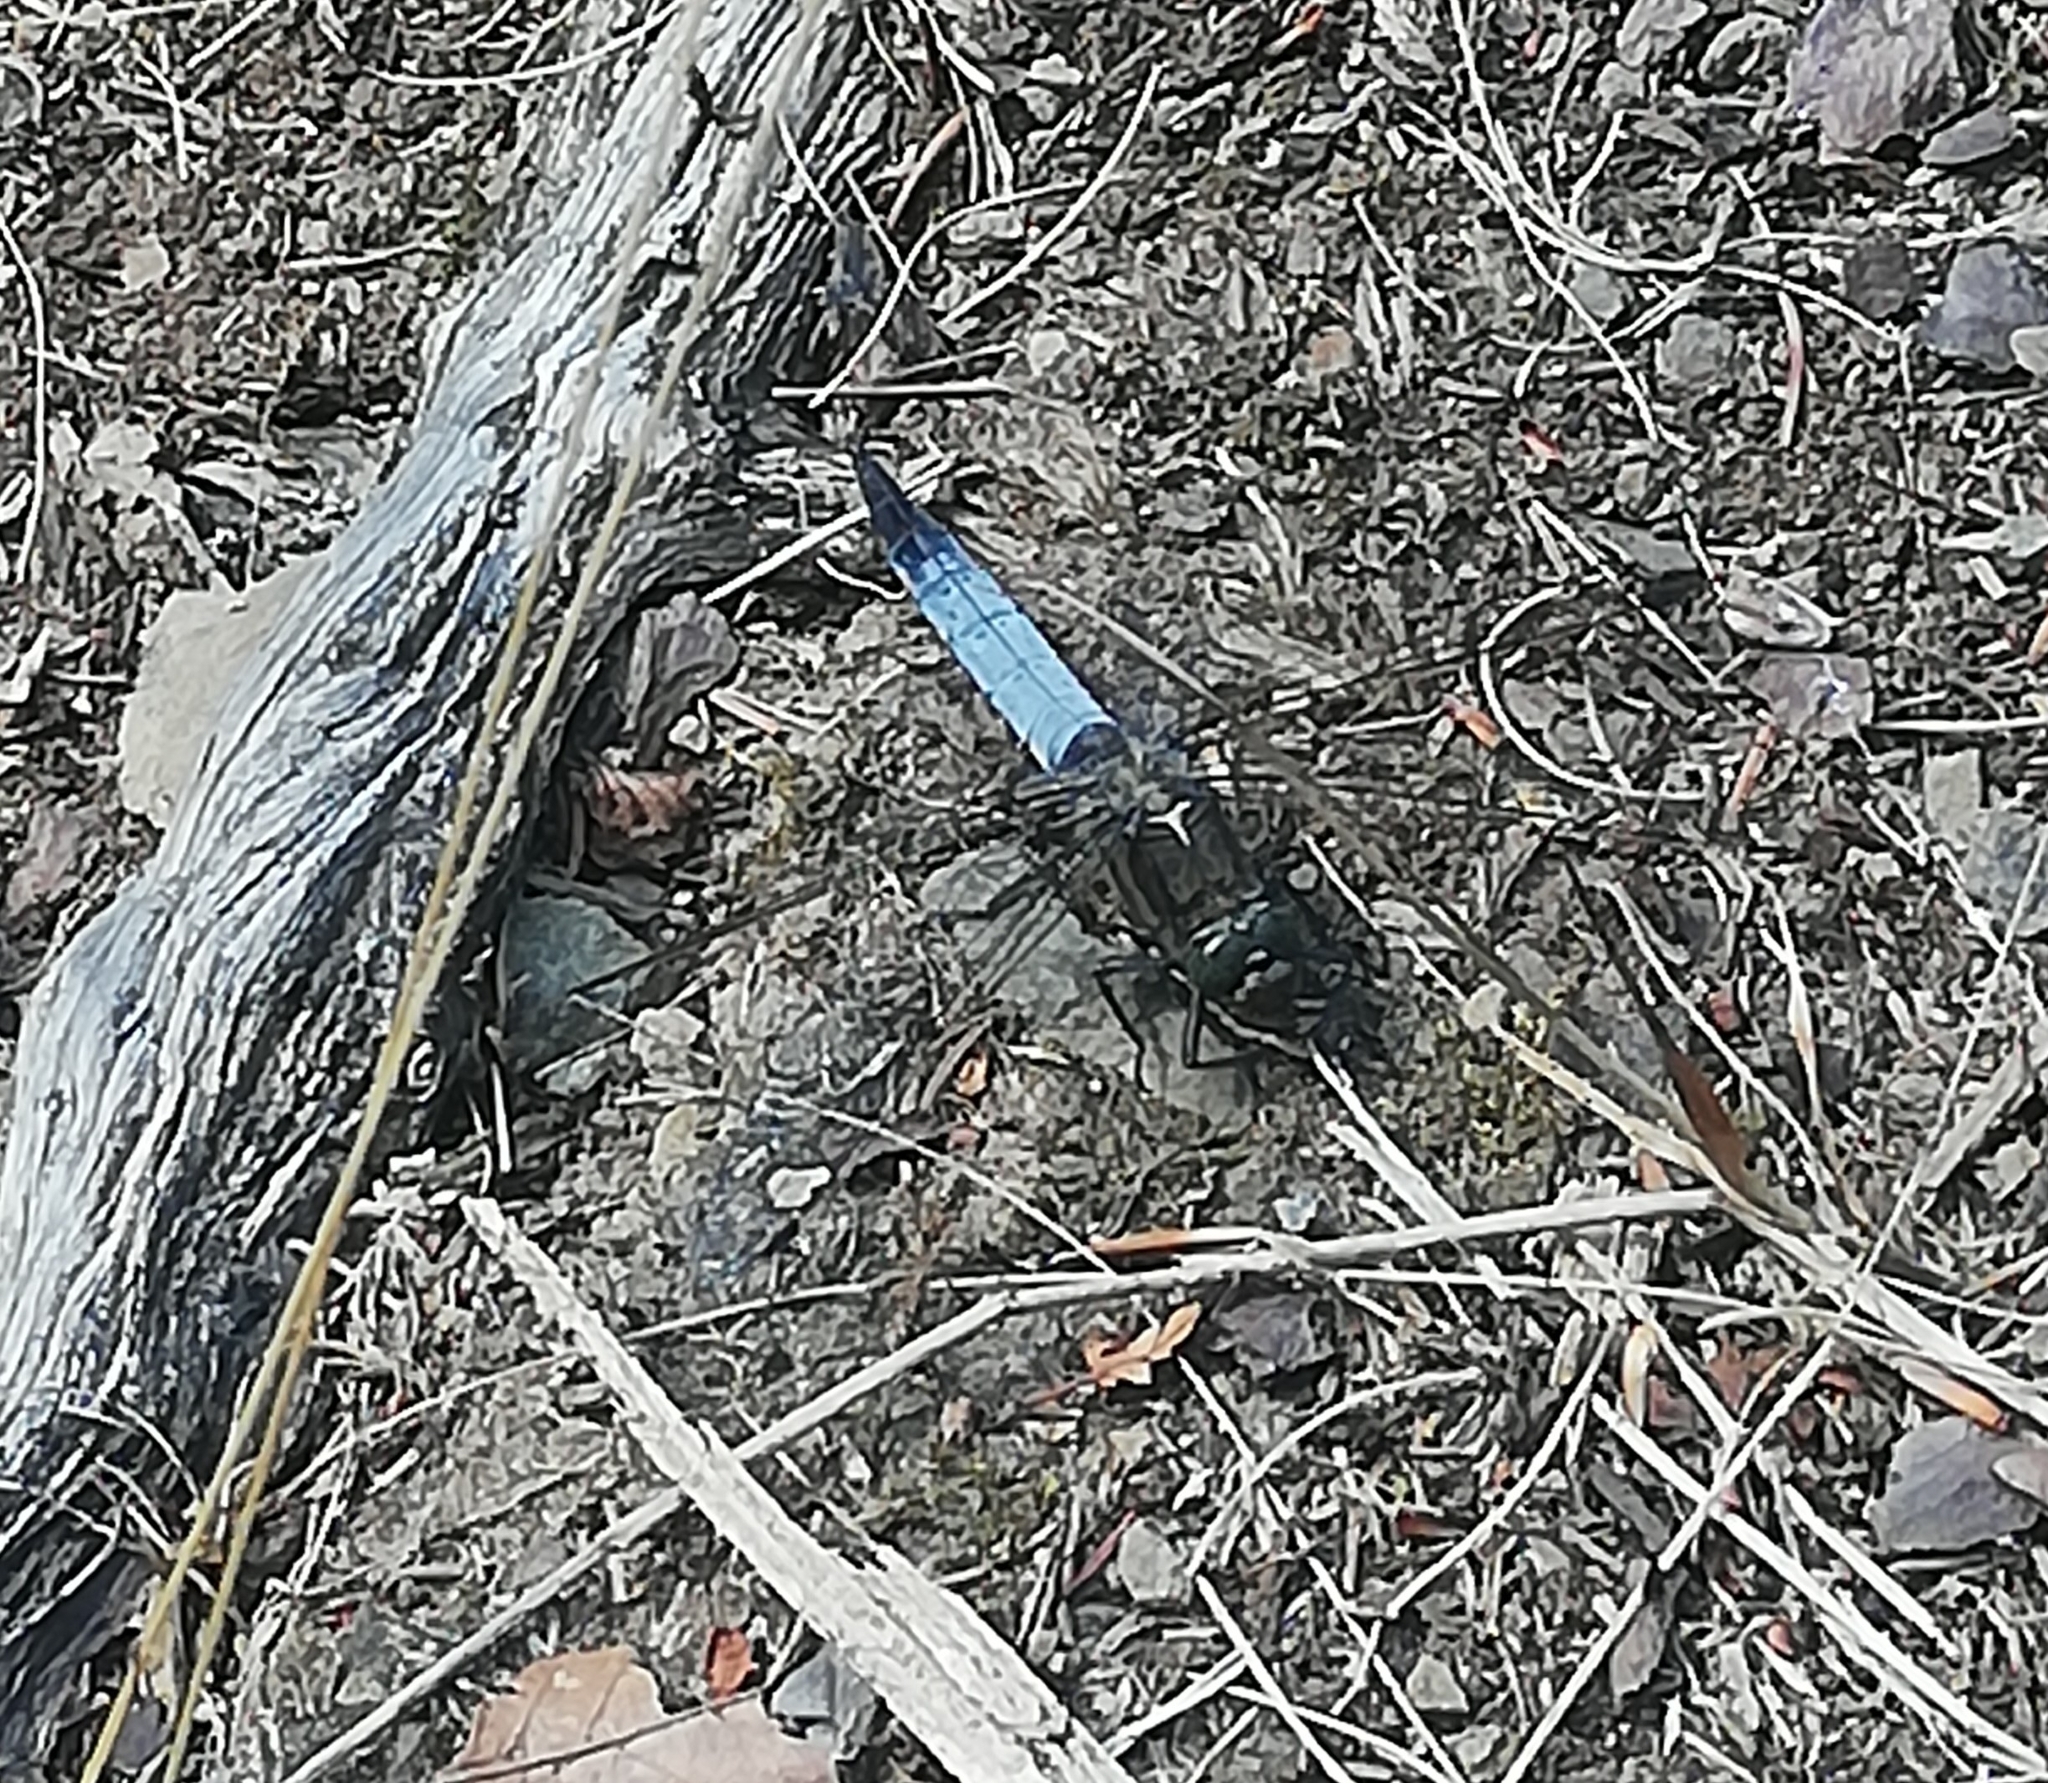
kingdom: Animalia
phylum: Arthropoda
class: Insecta
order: Odonata
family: Libellulidae
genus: Orthetrum
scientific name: Orthetrum cancellatum
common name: Black-tailed skimmer
